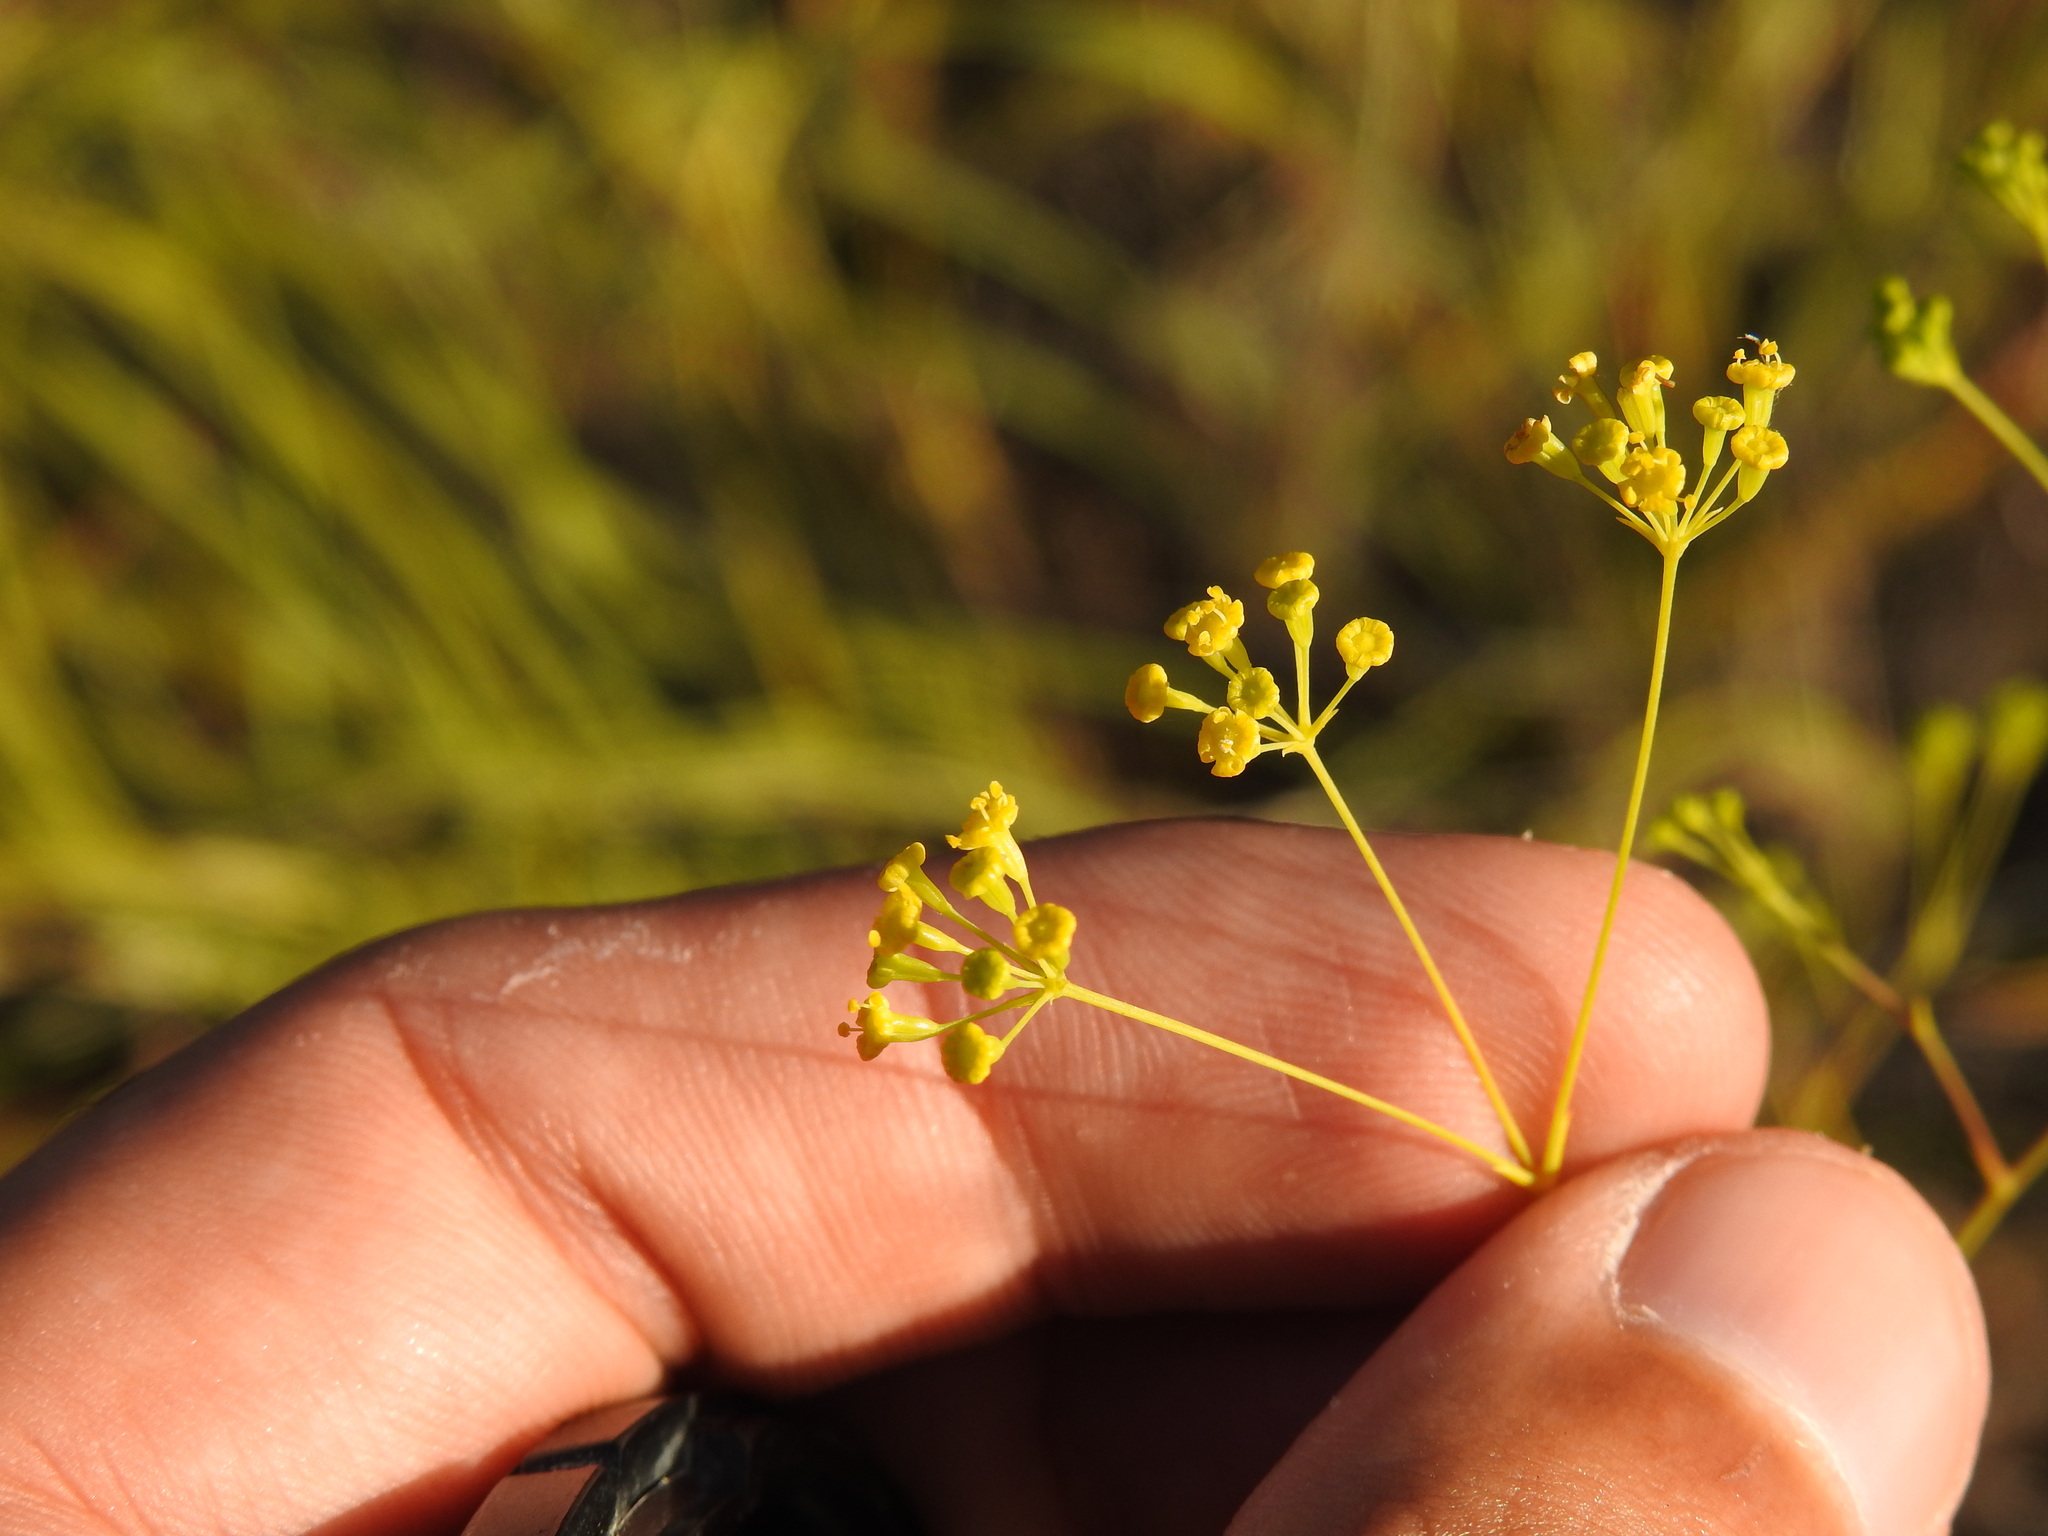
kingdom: Plantae
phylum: Tracheophyta
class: Magnoliopsida
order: Apiales
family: Apiaceae
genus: Bupleurum
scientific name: Bupleurum rigidum
